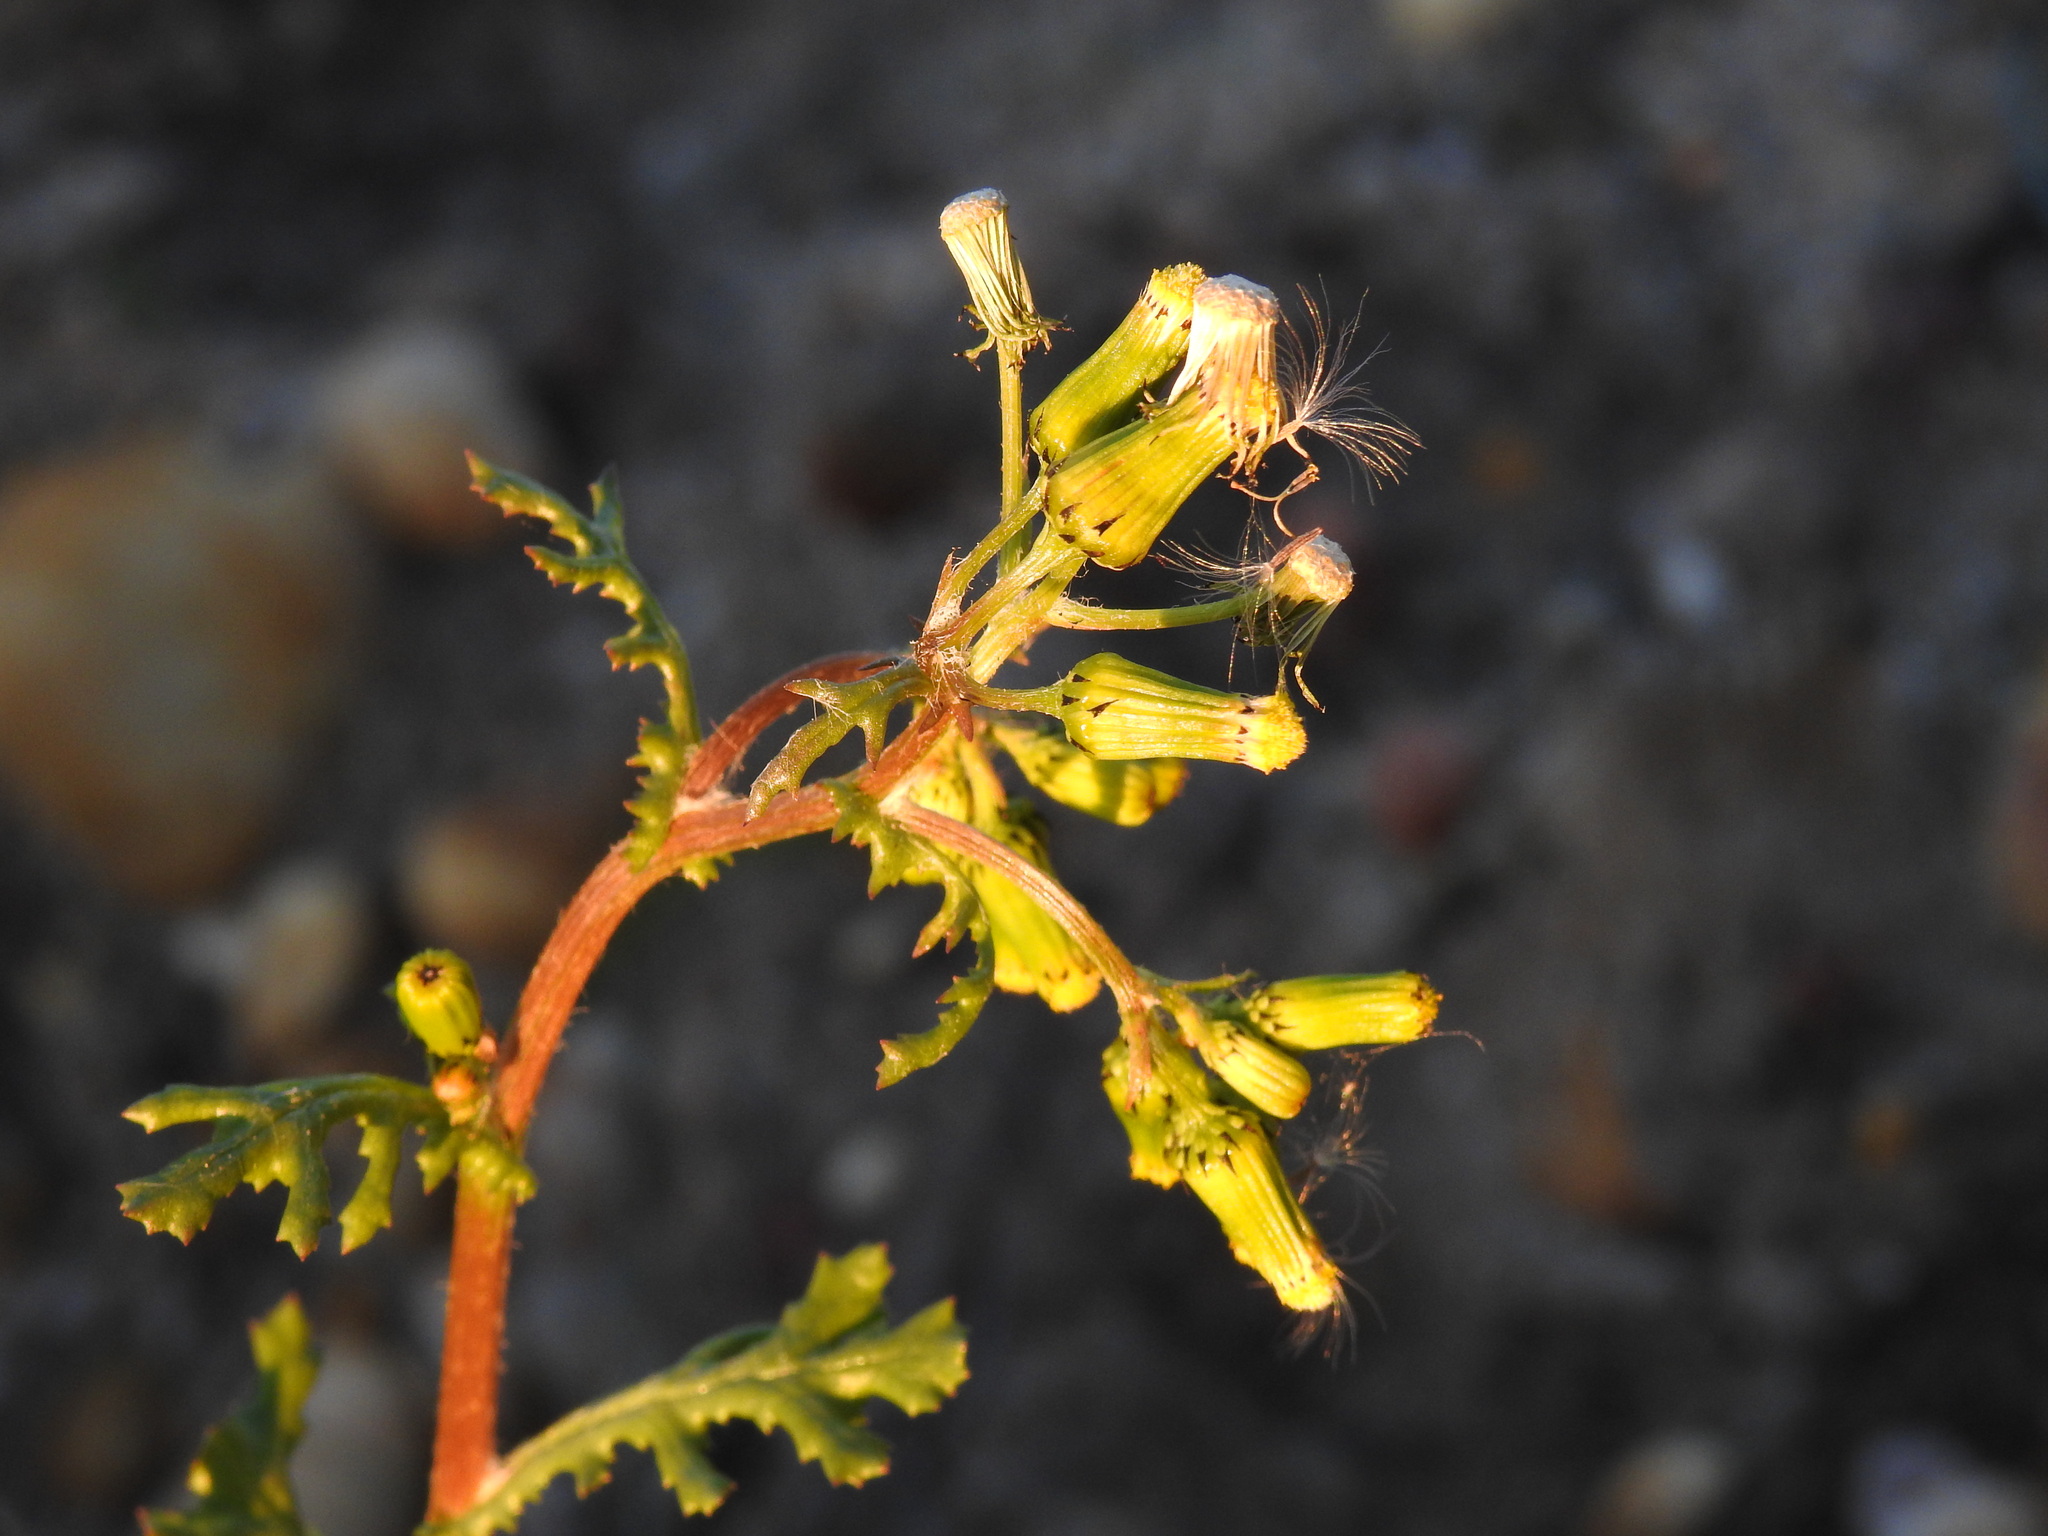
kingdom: Plantae
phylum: Tracheophyta
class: Magnoliopsida
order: Asterales
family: Asteraceae
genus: Senecio
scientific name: Senecio vulgaris
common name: Old-man-in-the-spring
